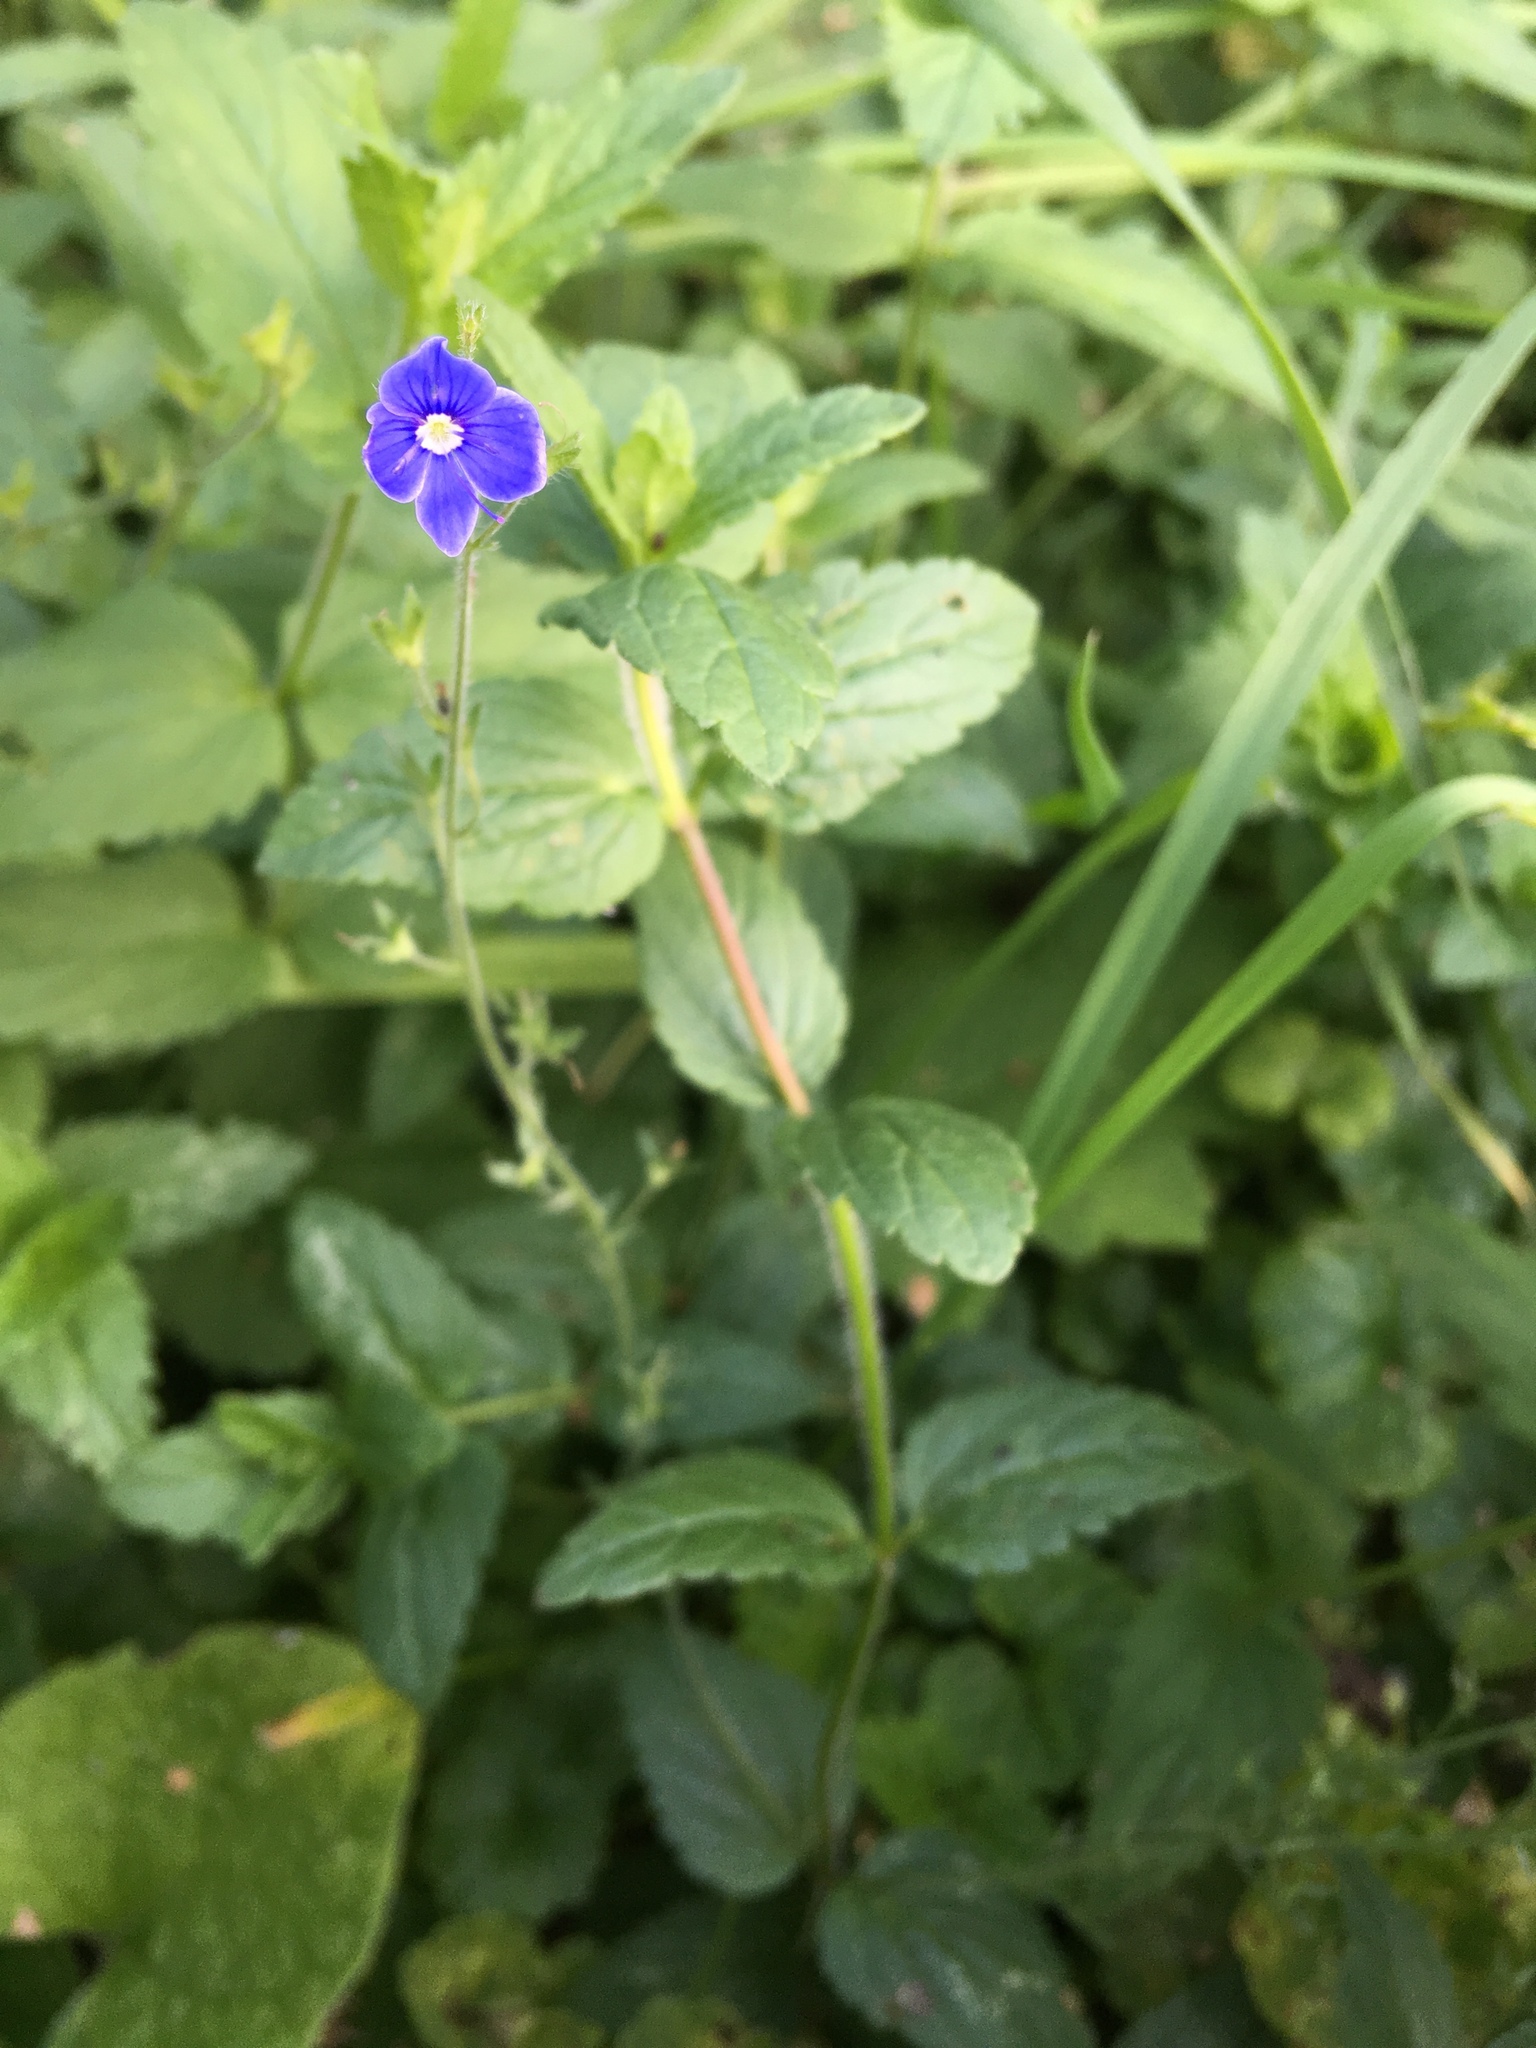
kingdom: Plantae
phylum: Tracheophyta
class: Magnoliopsida
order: Lamiales
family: Plantaginaceae
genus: Veronica
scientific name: Veronica chamaedrys
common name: Germander speedwell
